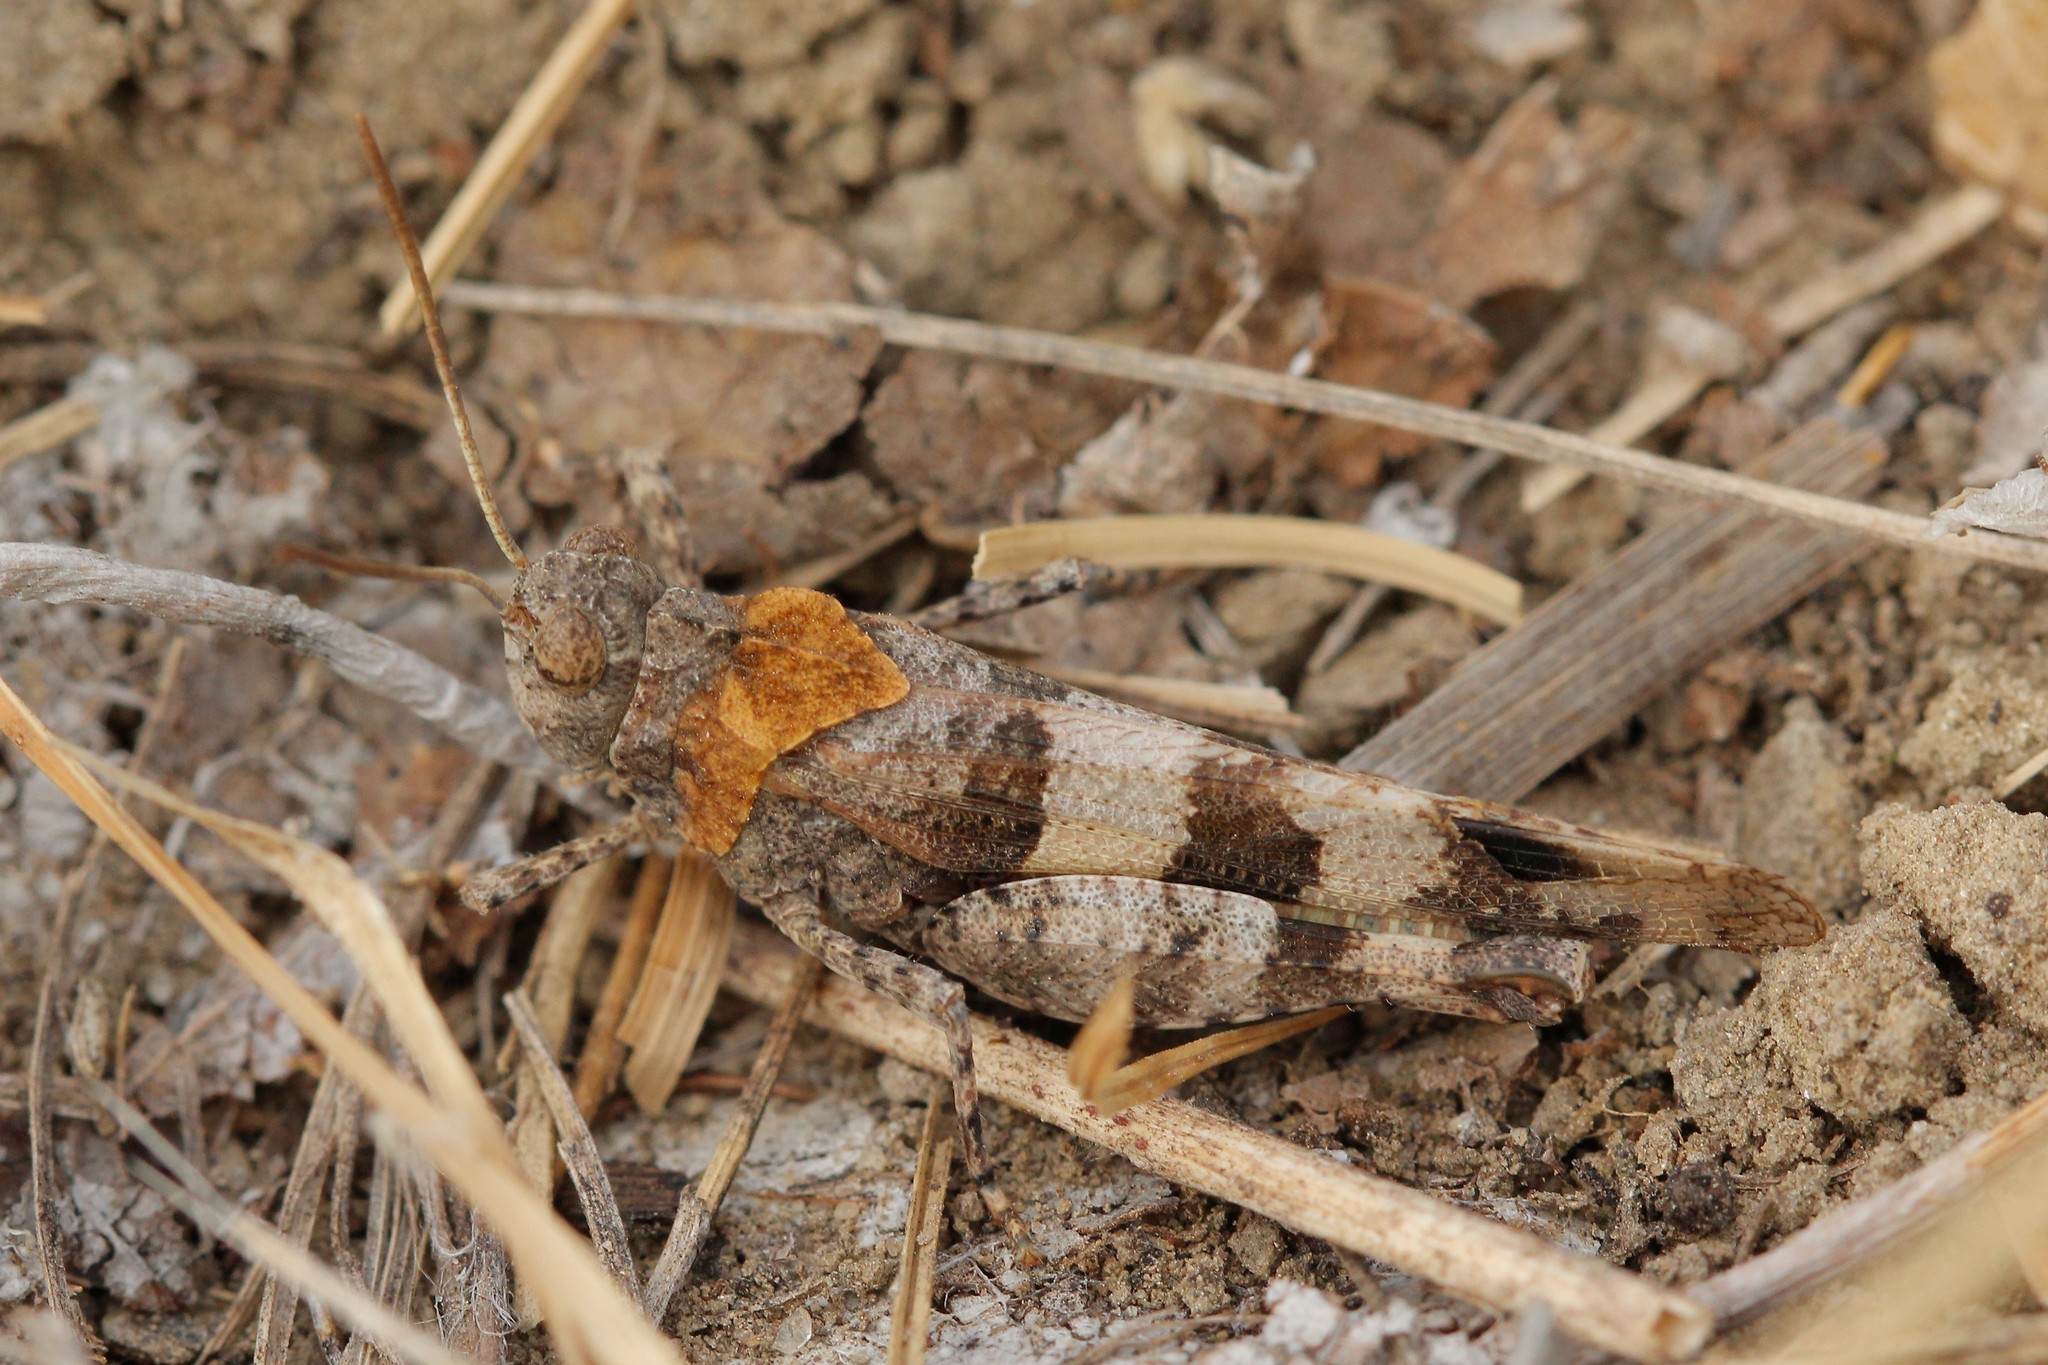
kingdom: Animalia
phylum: Arthropoda
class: Insecta
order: Orthoptera
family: Acrididae
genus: Oedipoda
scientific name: Oedipoda caerulescens
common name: Blue-winged grasshopper
